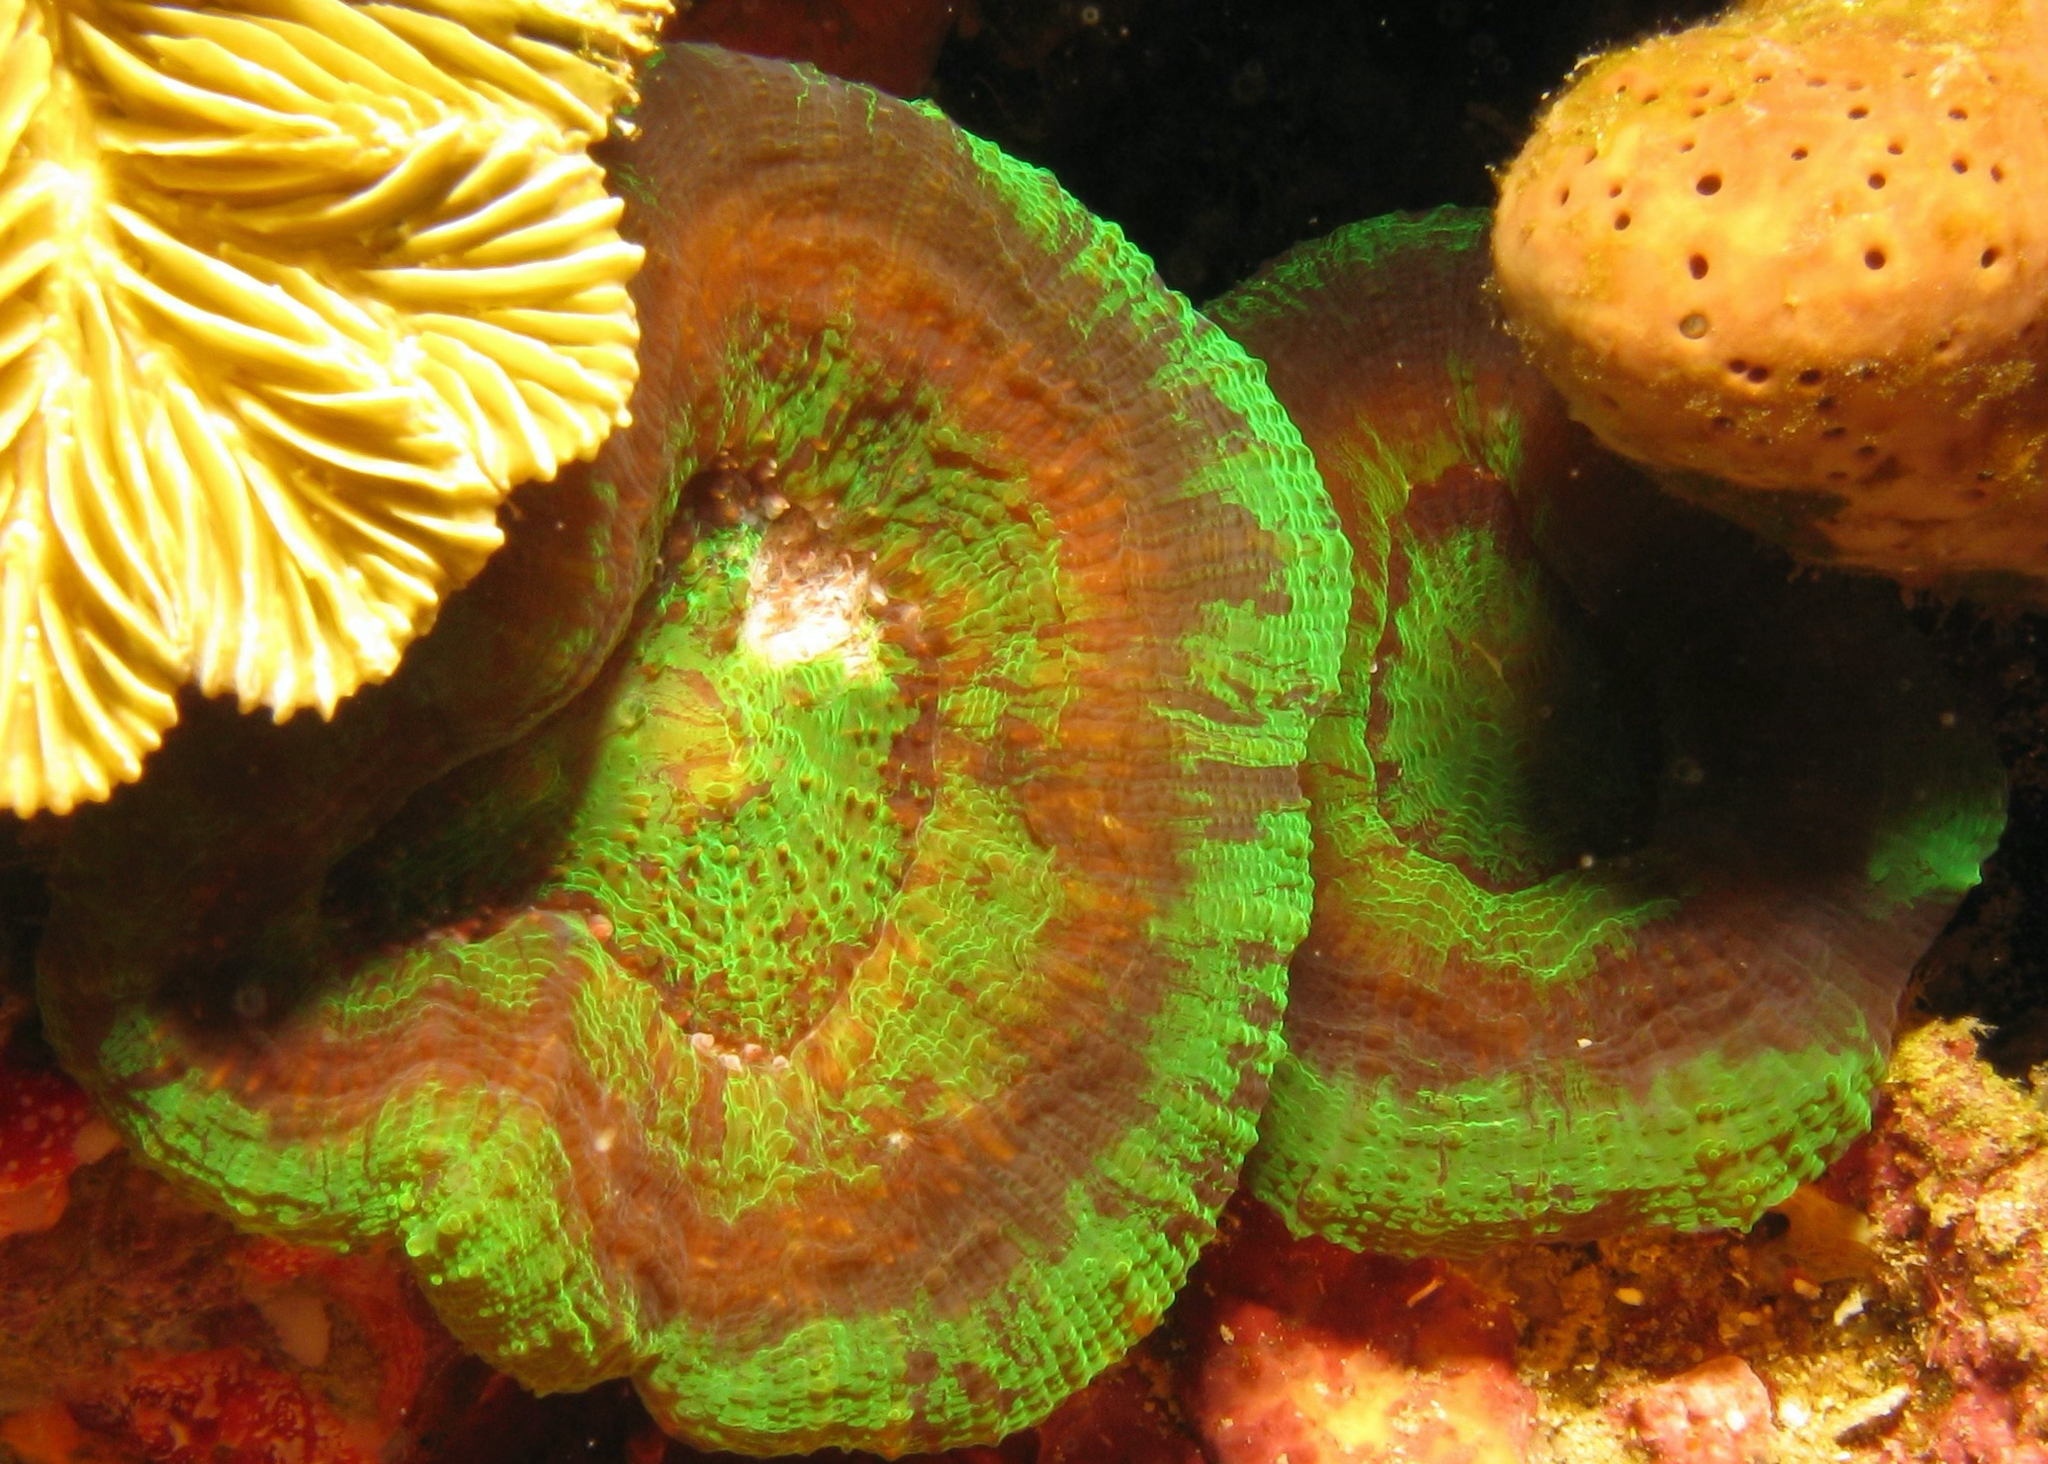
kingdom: Animalia
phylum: Cnidaria
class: Anthozoa
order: Scleractinia
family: Faviidae
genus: Scolymia
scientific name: Scolymia cubensis
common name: Artichoke coral
